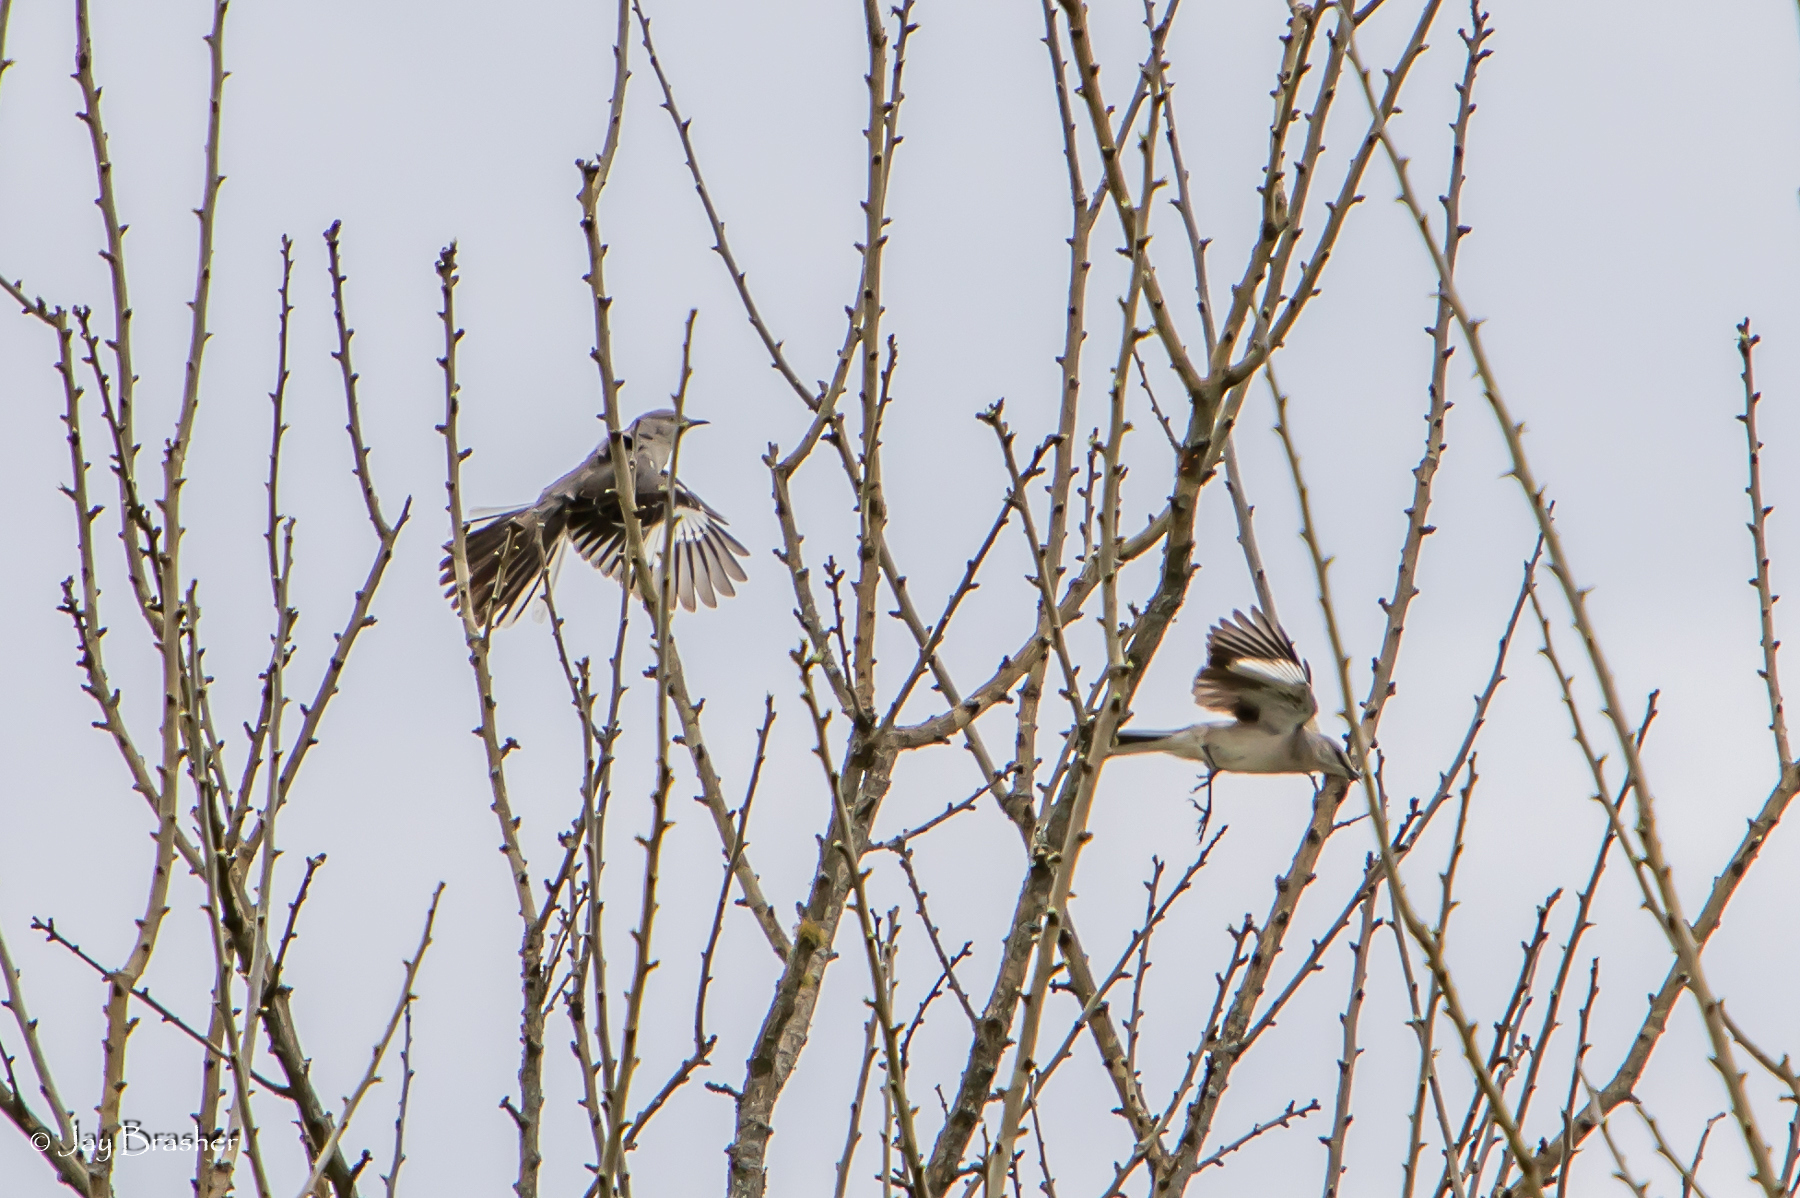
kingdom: Animalia
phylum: Chordata
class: Aves
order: Passeriformes
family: Mimidae
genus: Mimus
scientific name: Mimus polyglottos
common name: Northern mockingbird
